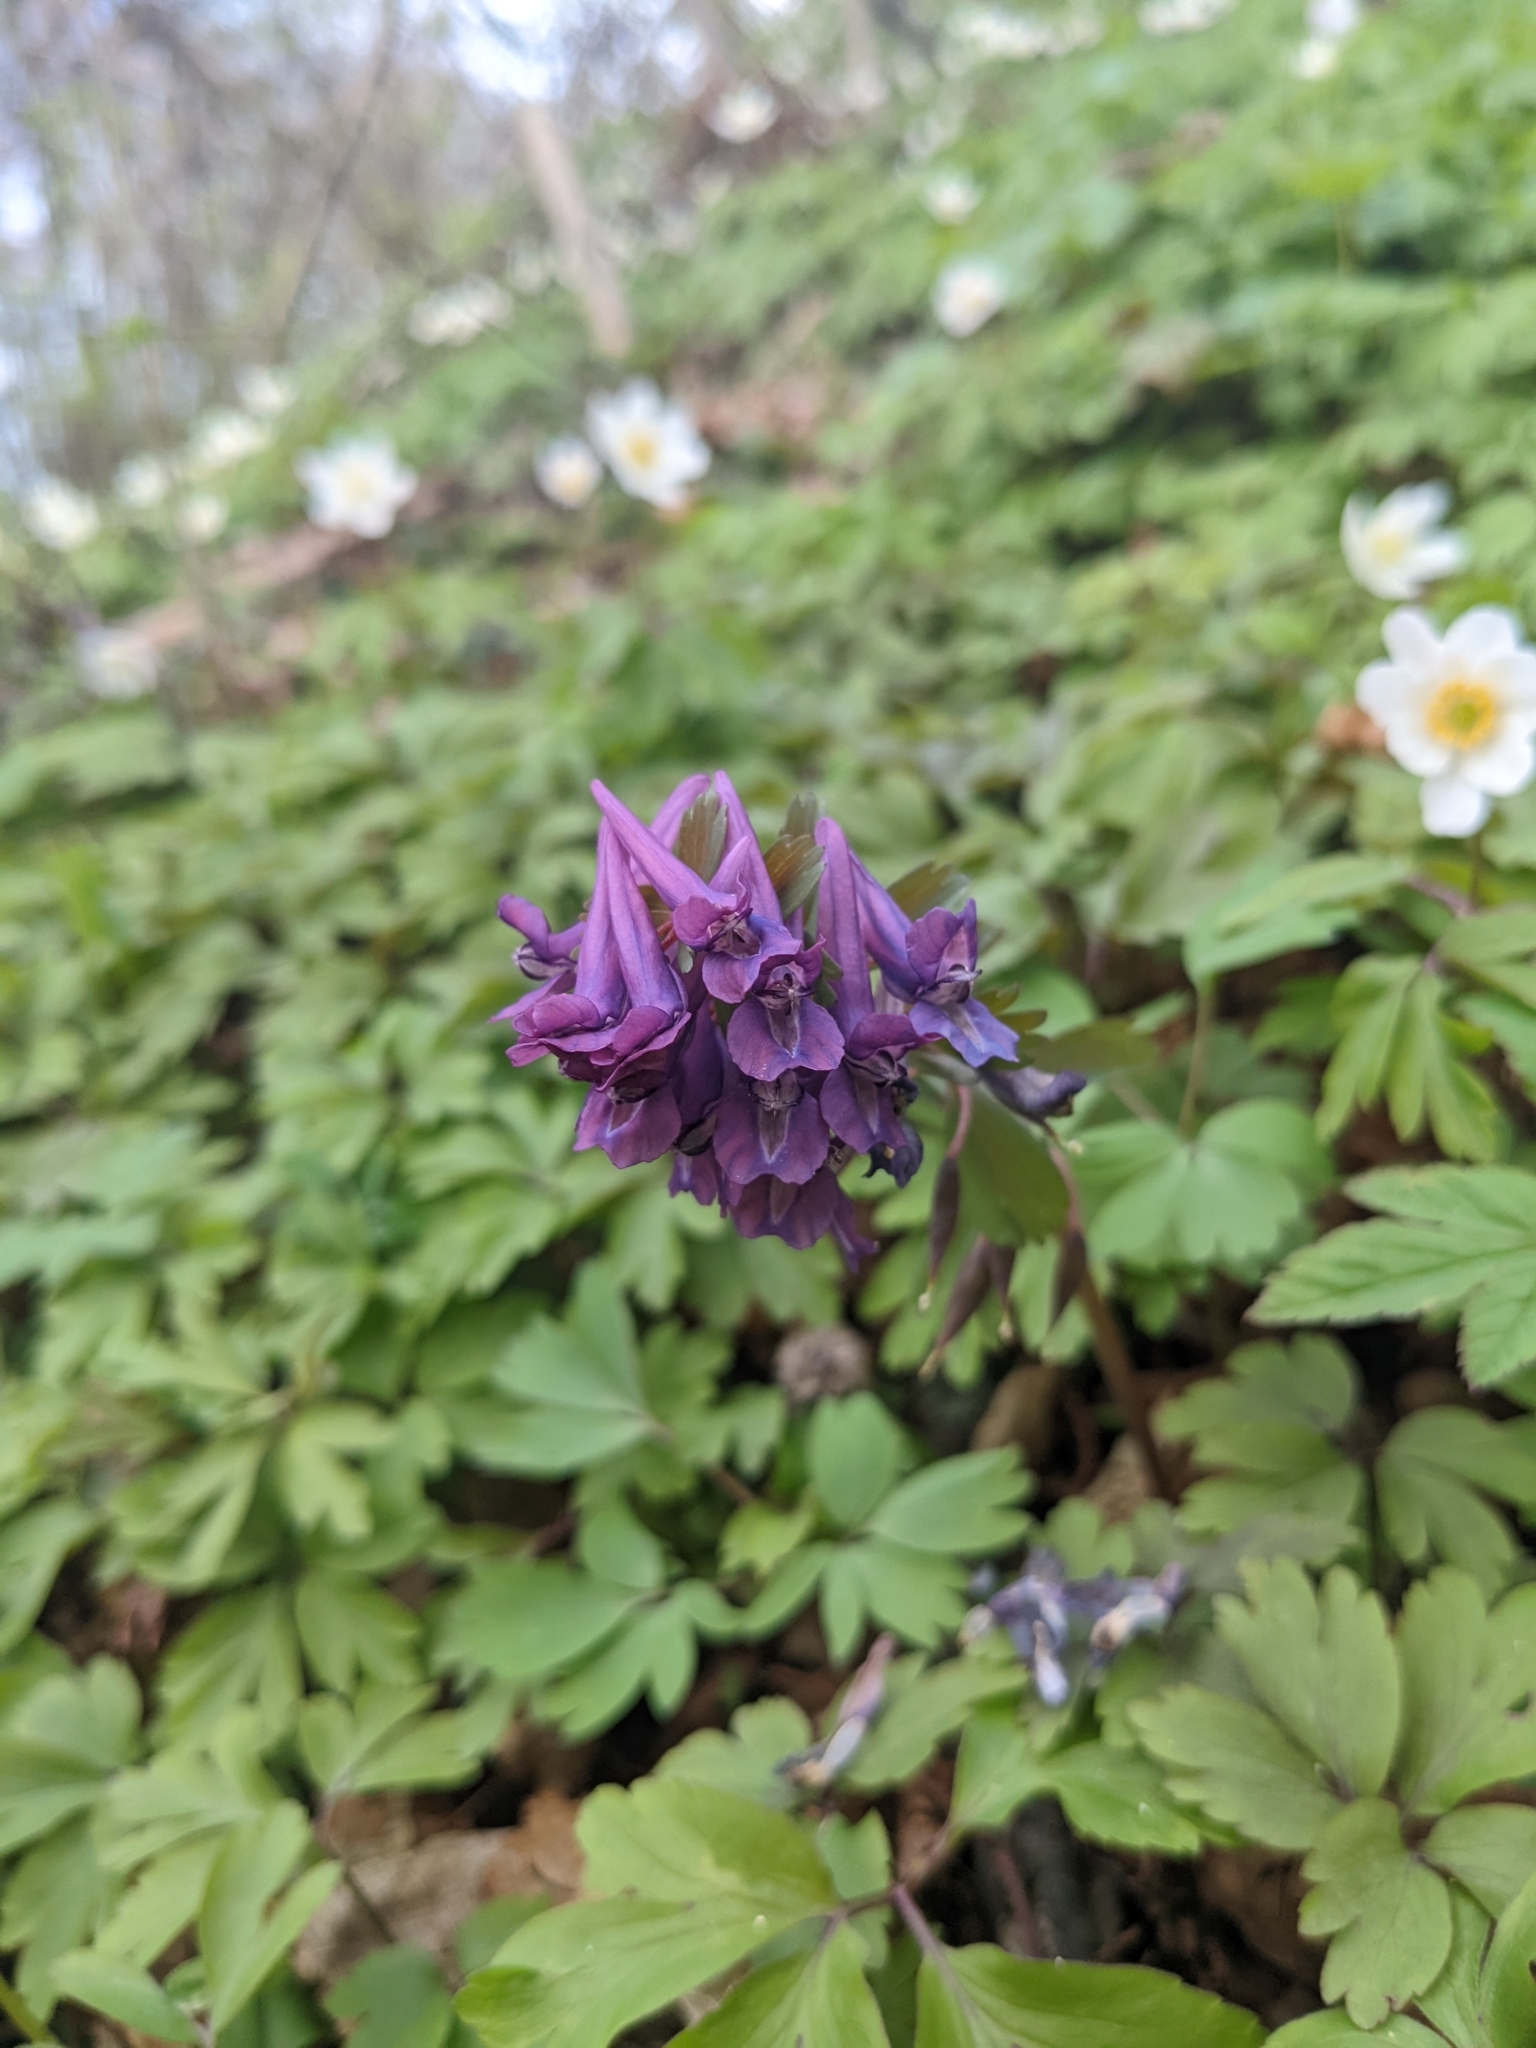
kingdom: Plantae
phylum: Tracheophyta
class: Magnoliopsida
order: Ranunculales
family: Papaveraceae
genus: Corydalis
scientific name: Corydalis solida
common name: Bird-in-a-bush
